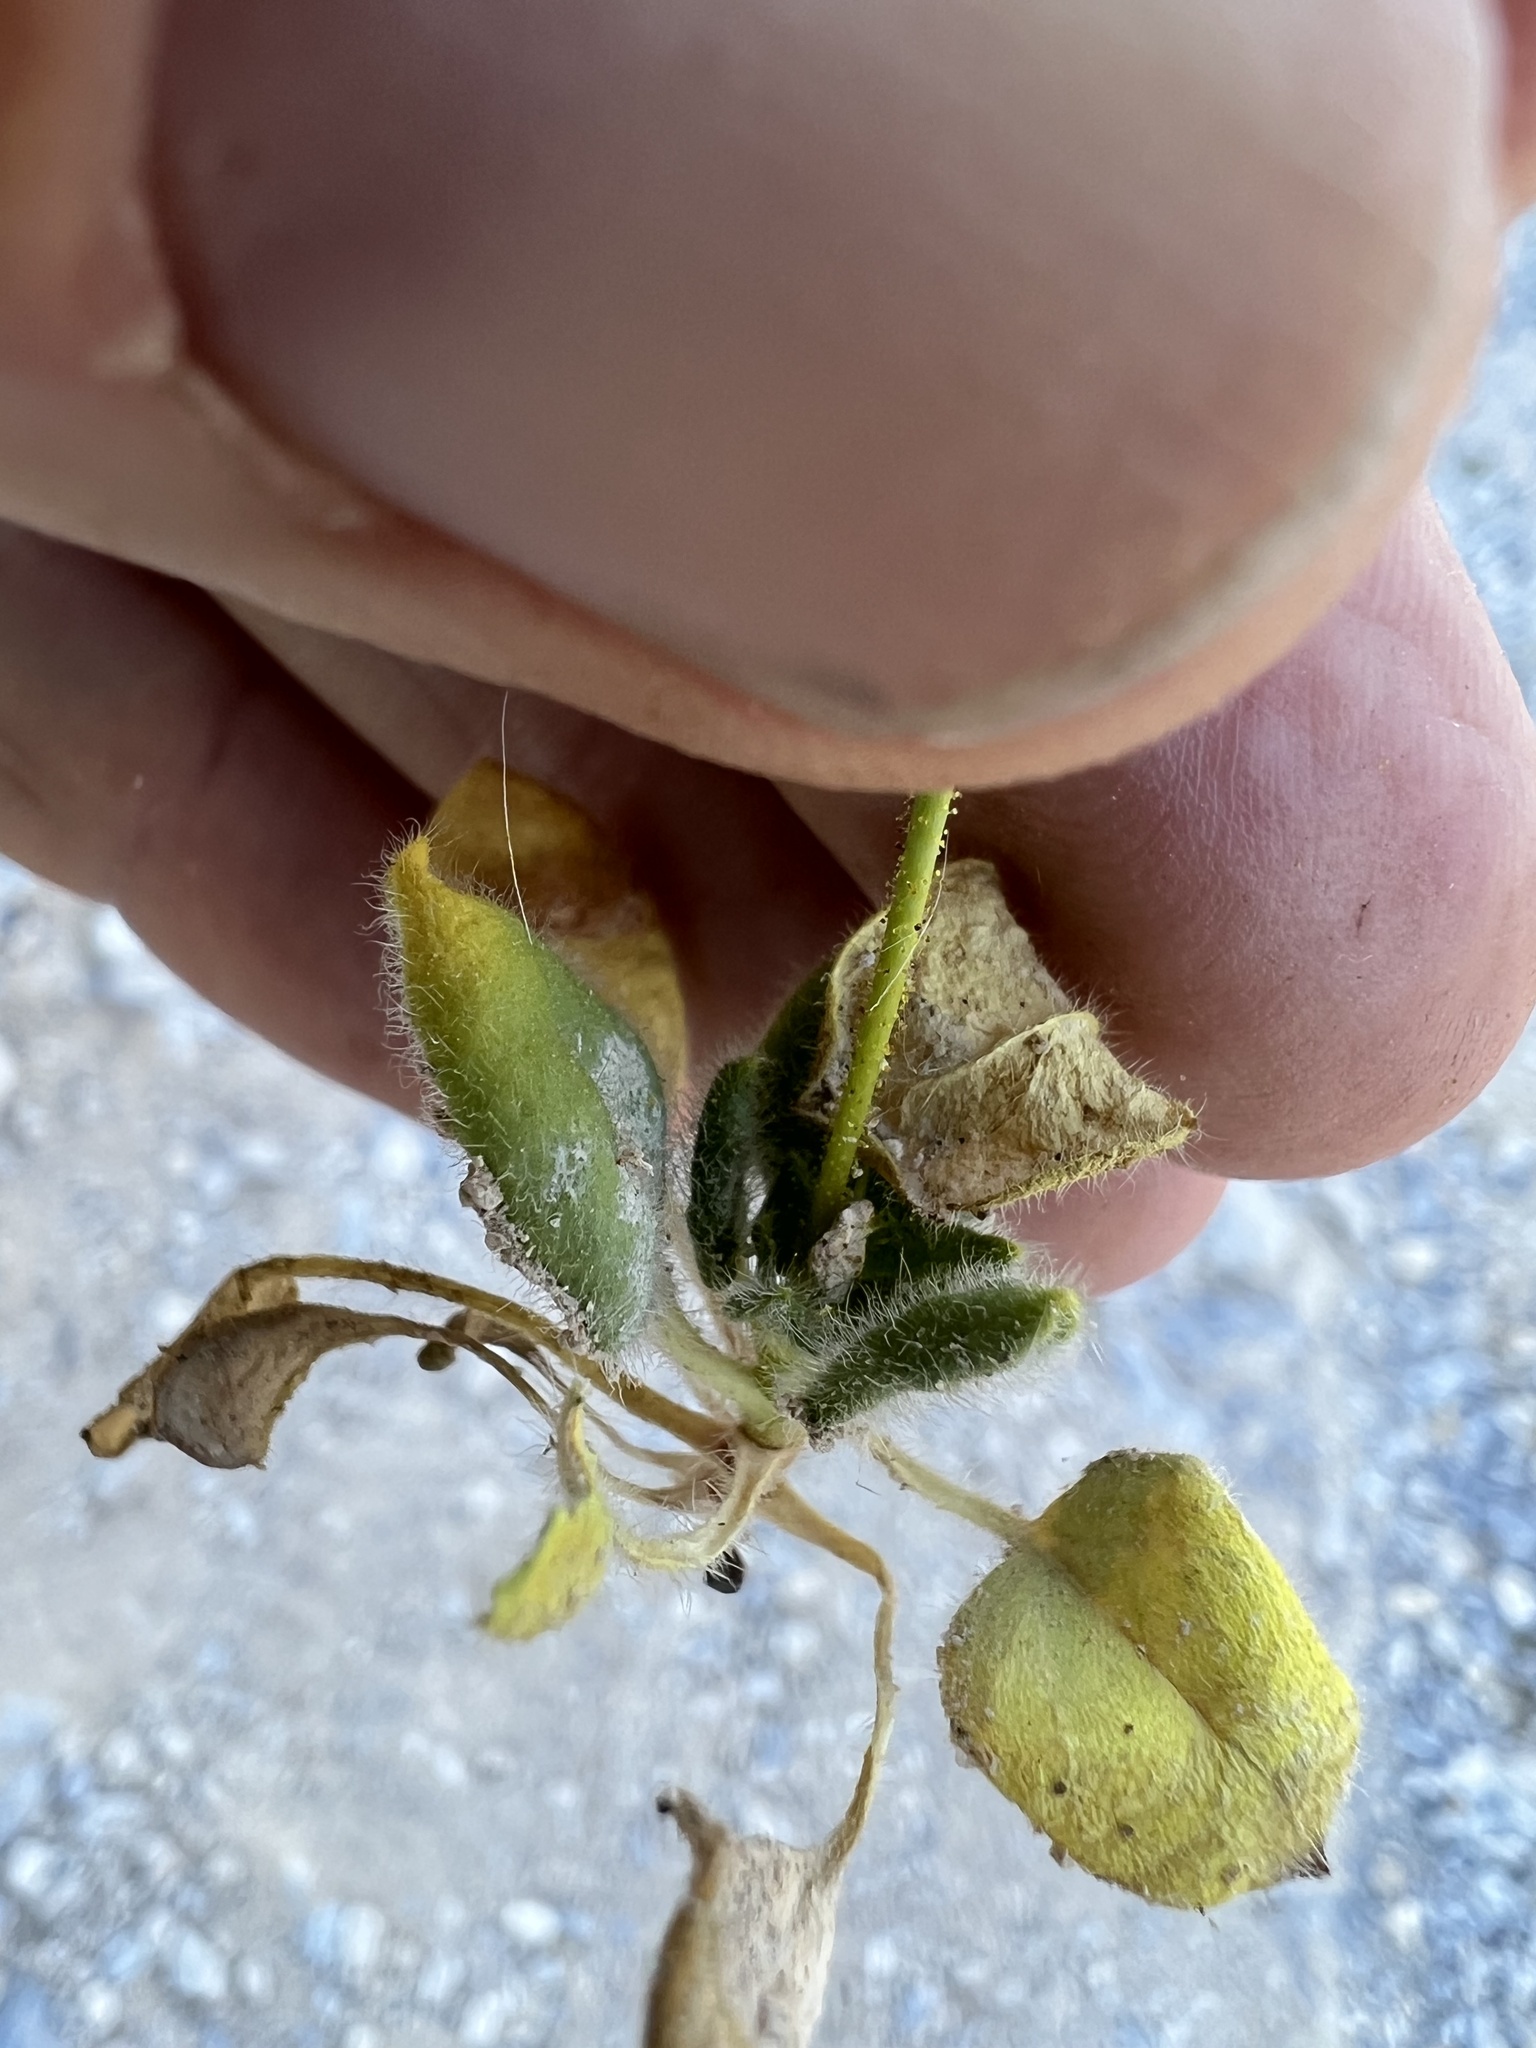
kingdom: Plantae
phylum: Tracheophyta
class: Magnoliopsida
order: Caryophyllales
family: Polygonaceae
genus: Eriogonum
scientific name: Eriogonum glandulosum
